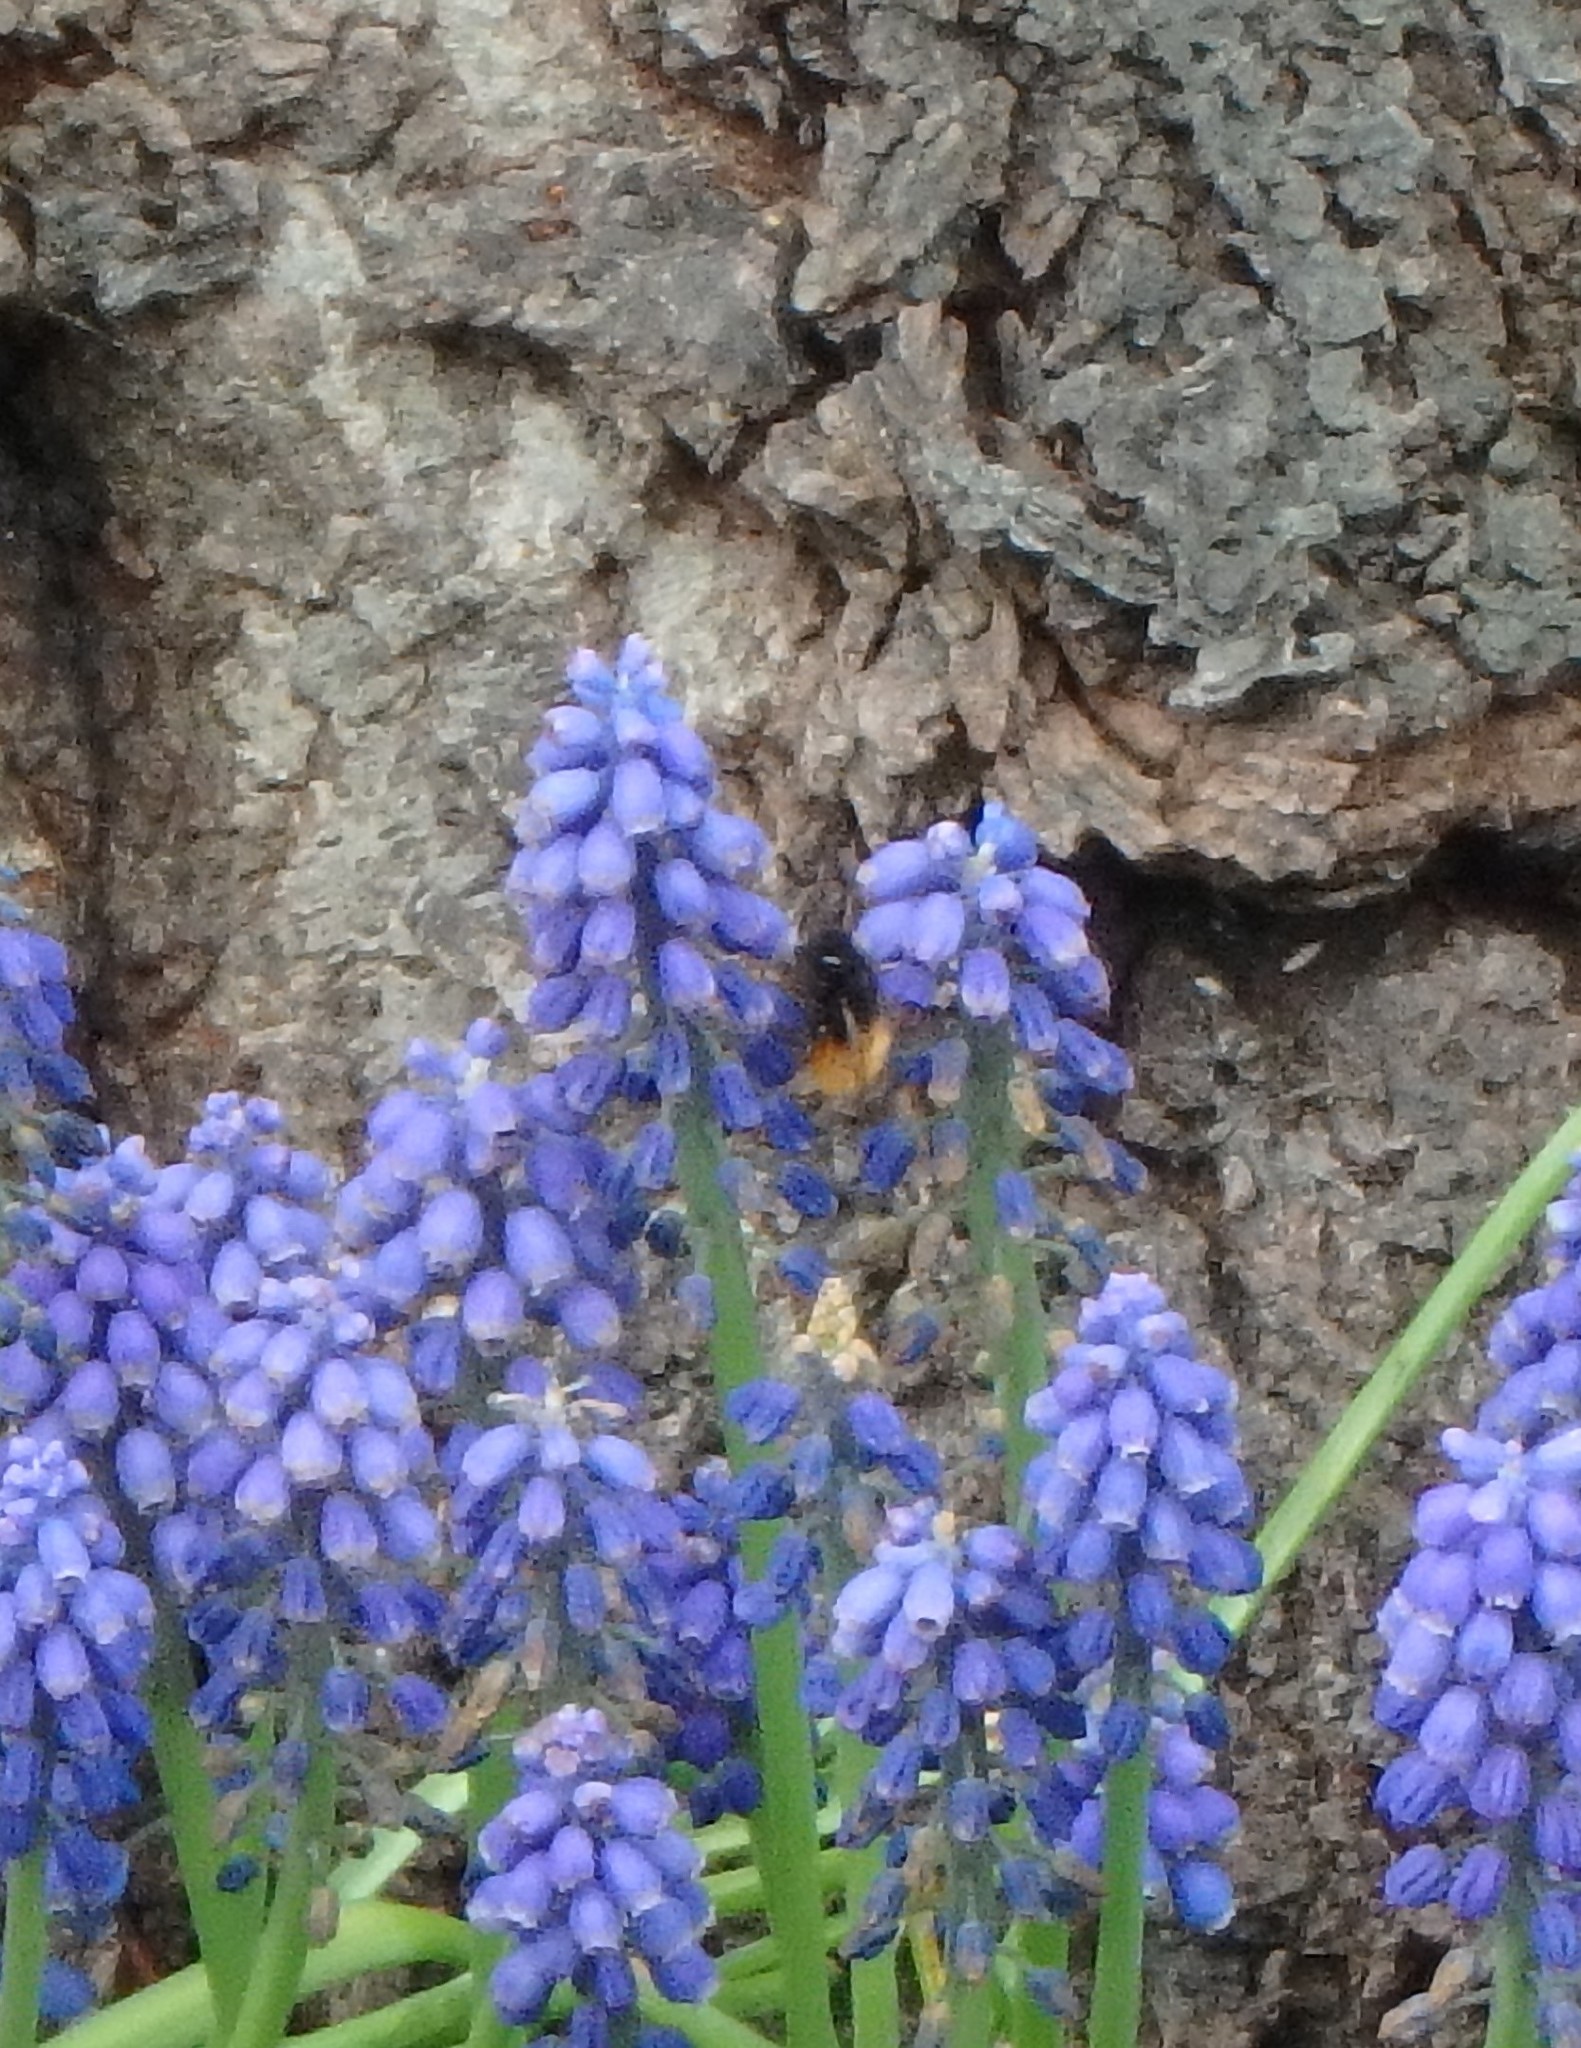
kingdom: Animalia
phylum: Arthropoda
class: Insecta
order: Hymenoptera
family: Megachilidae
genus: Osmia
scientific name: Osmia cornuta
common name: Mason bee
